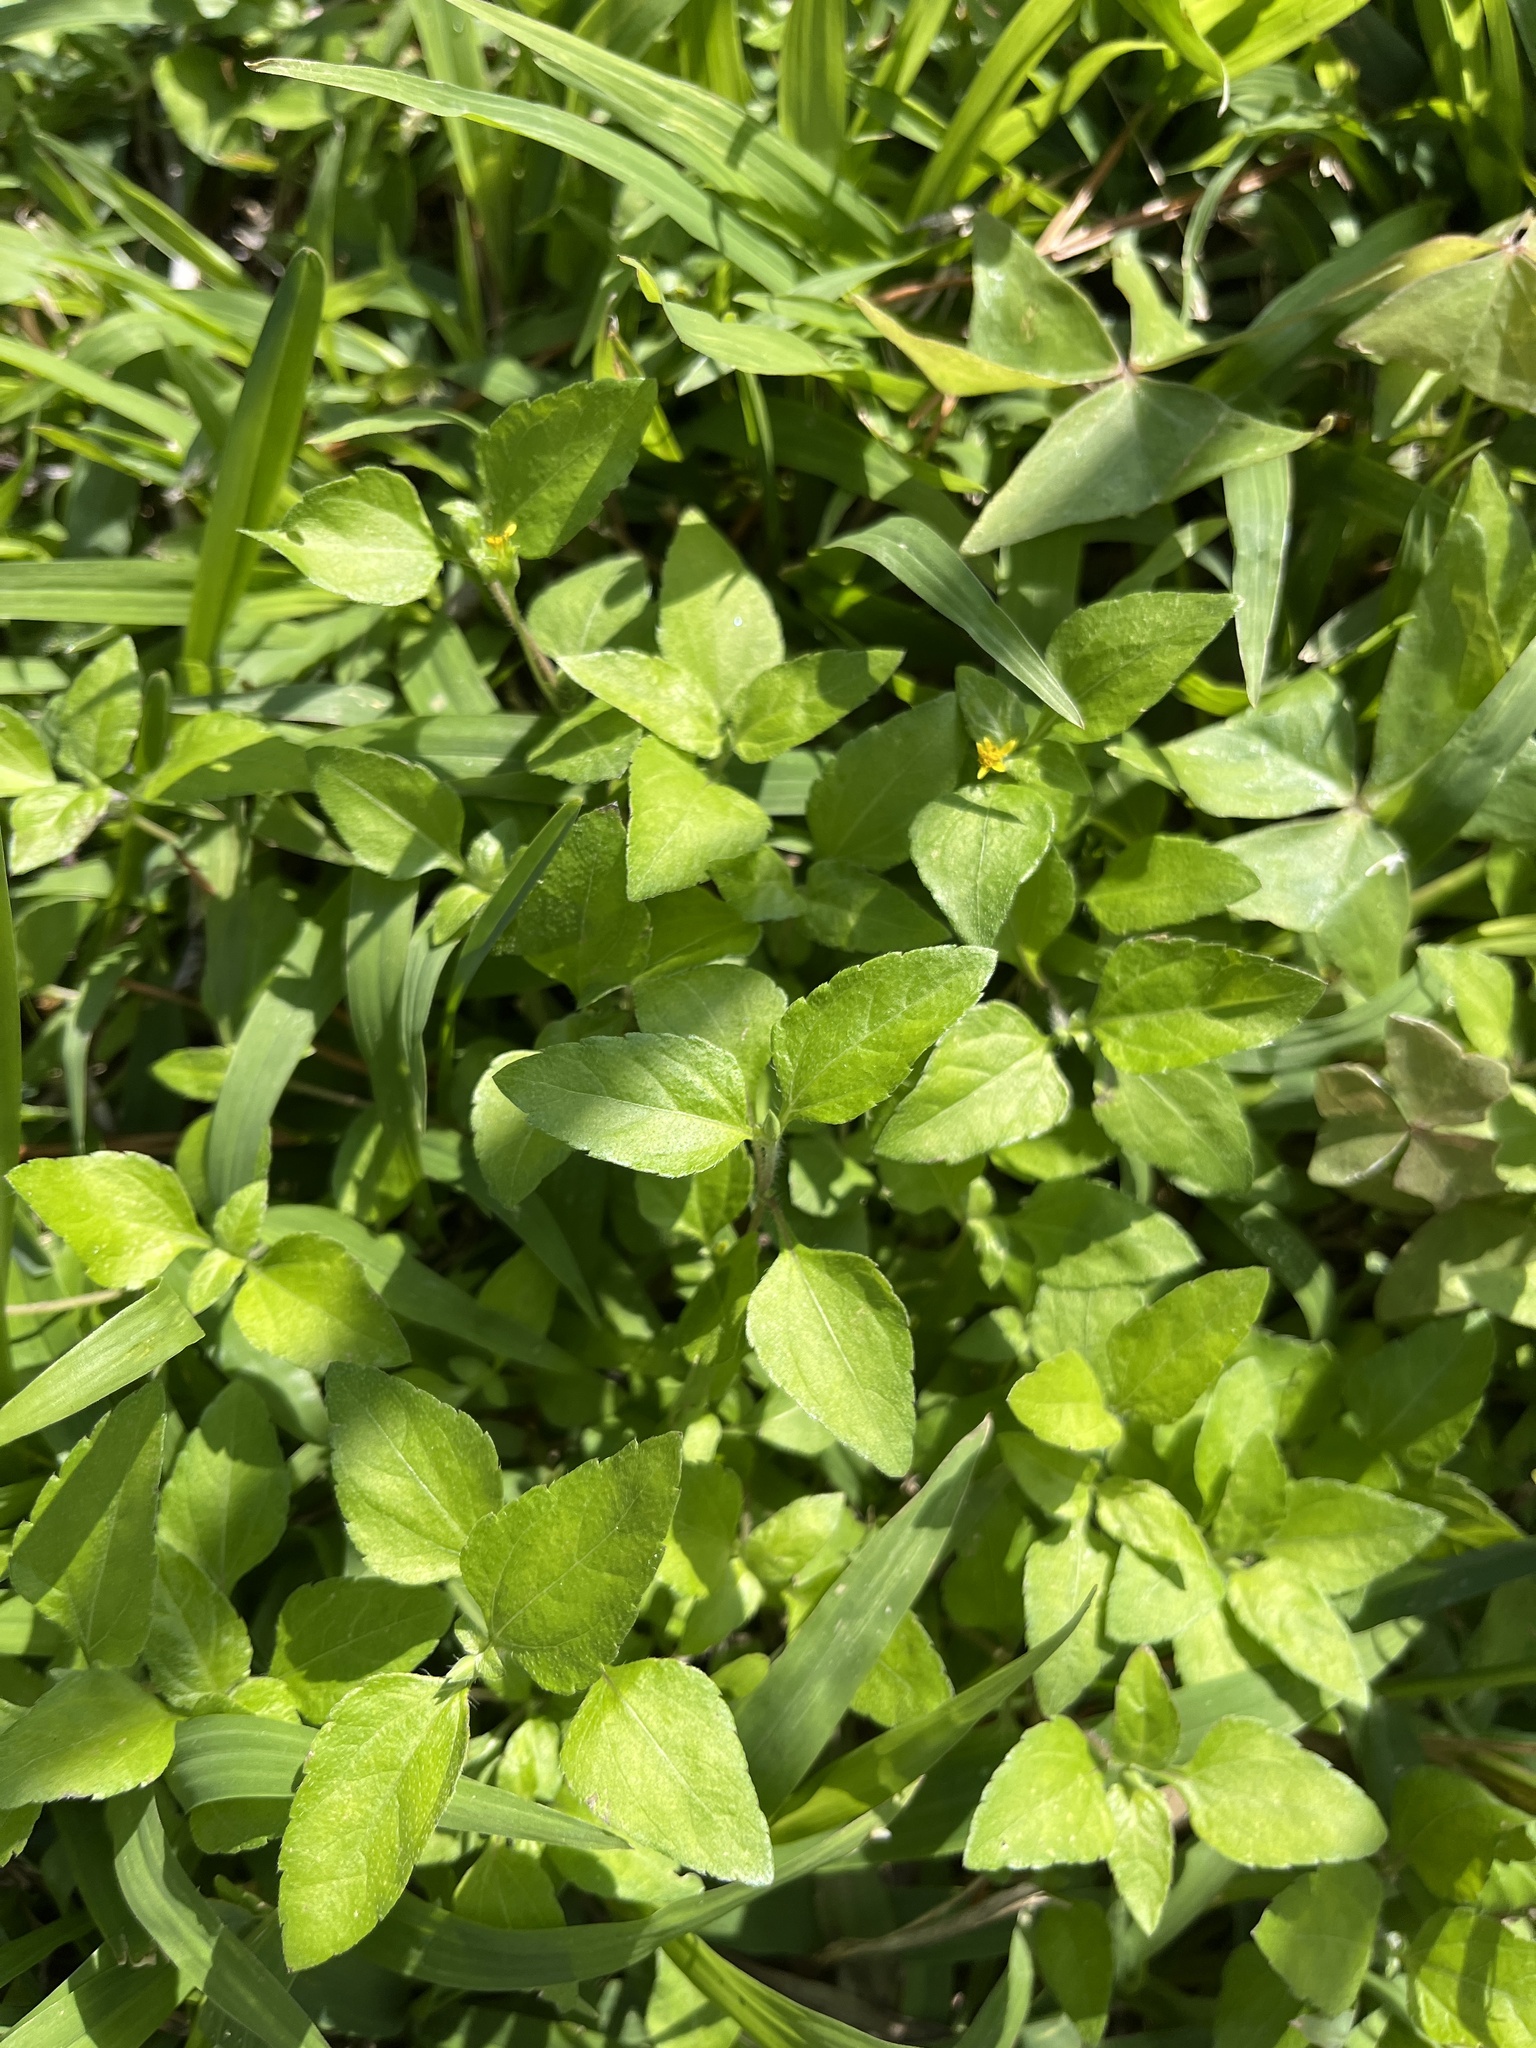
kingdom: Plantae
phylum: Tracheophyta
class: Magnoliopsida
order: Asterales
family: Asteraceae
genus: Calyptocarpus
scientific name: Calyptocarpus vialis
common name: Straggler daisy
